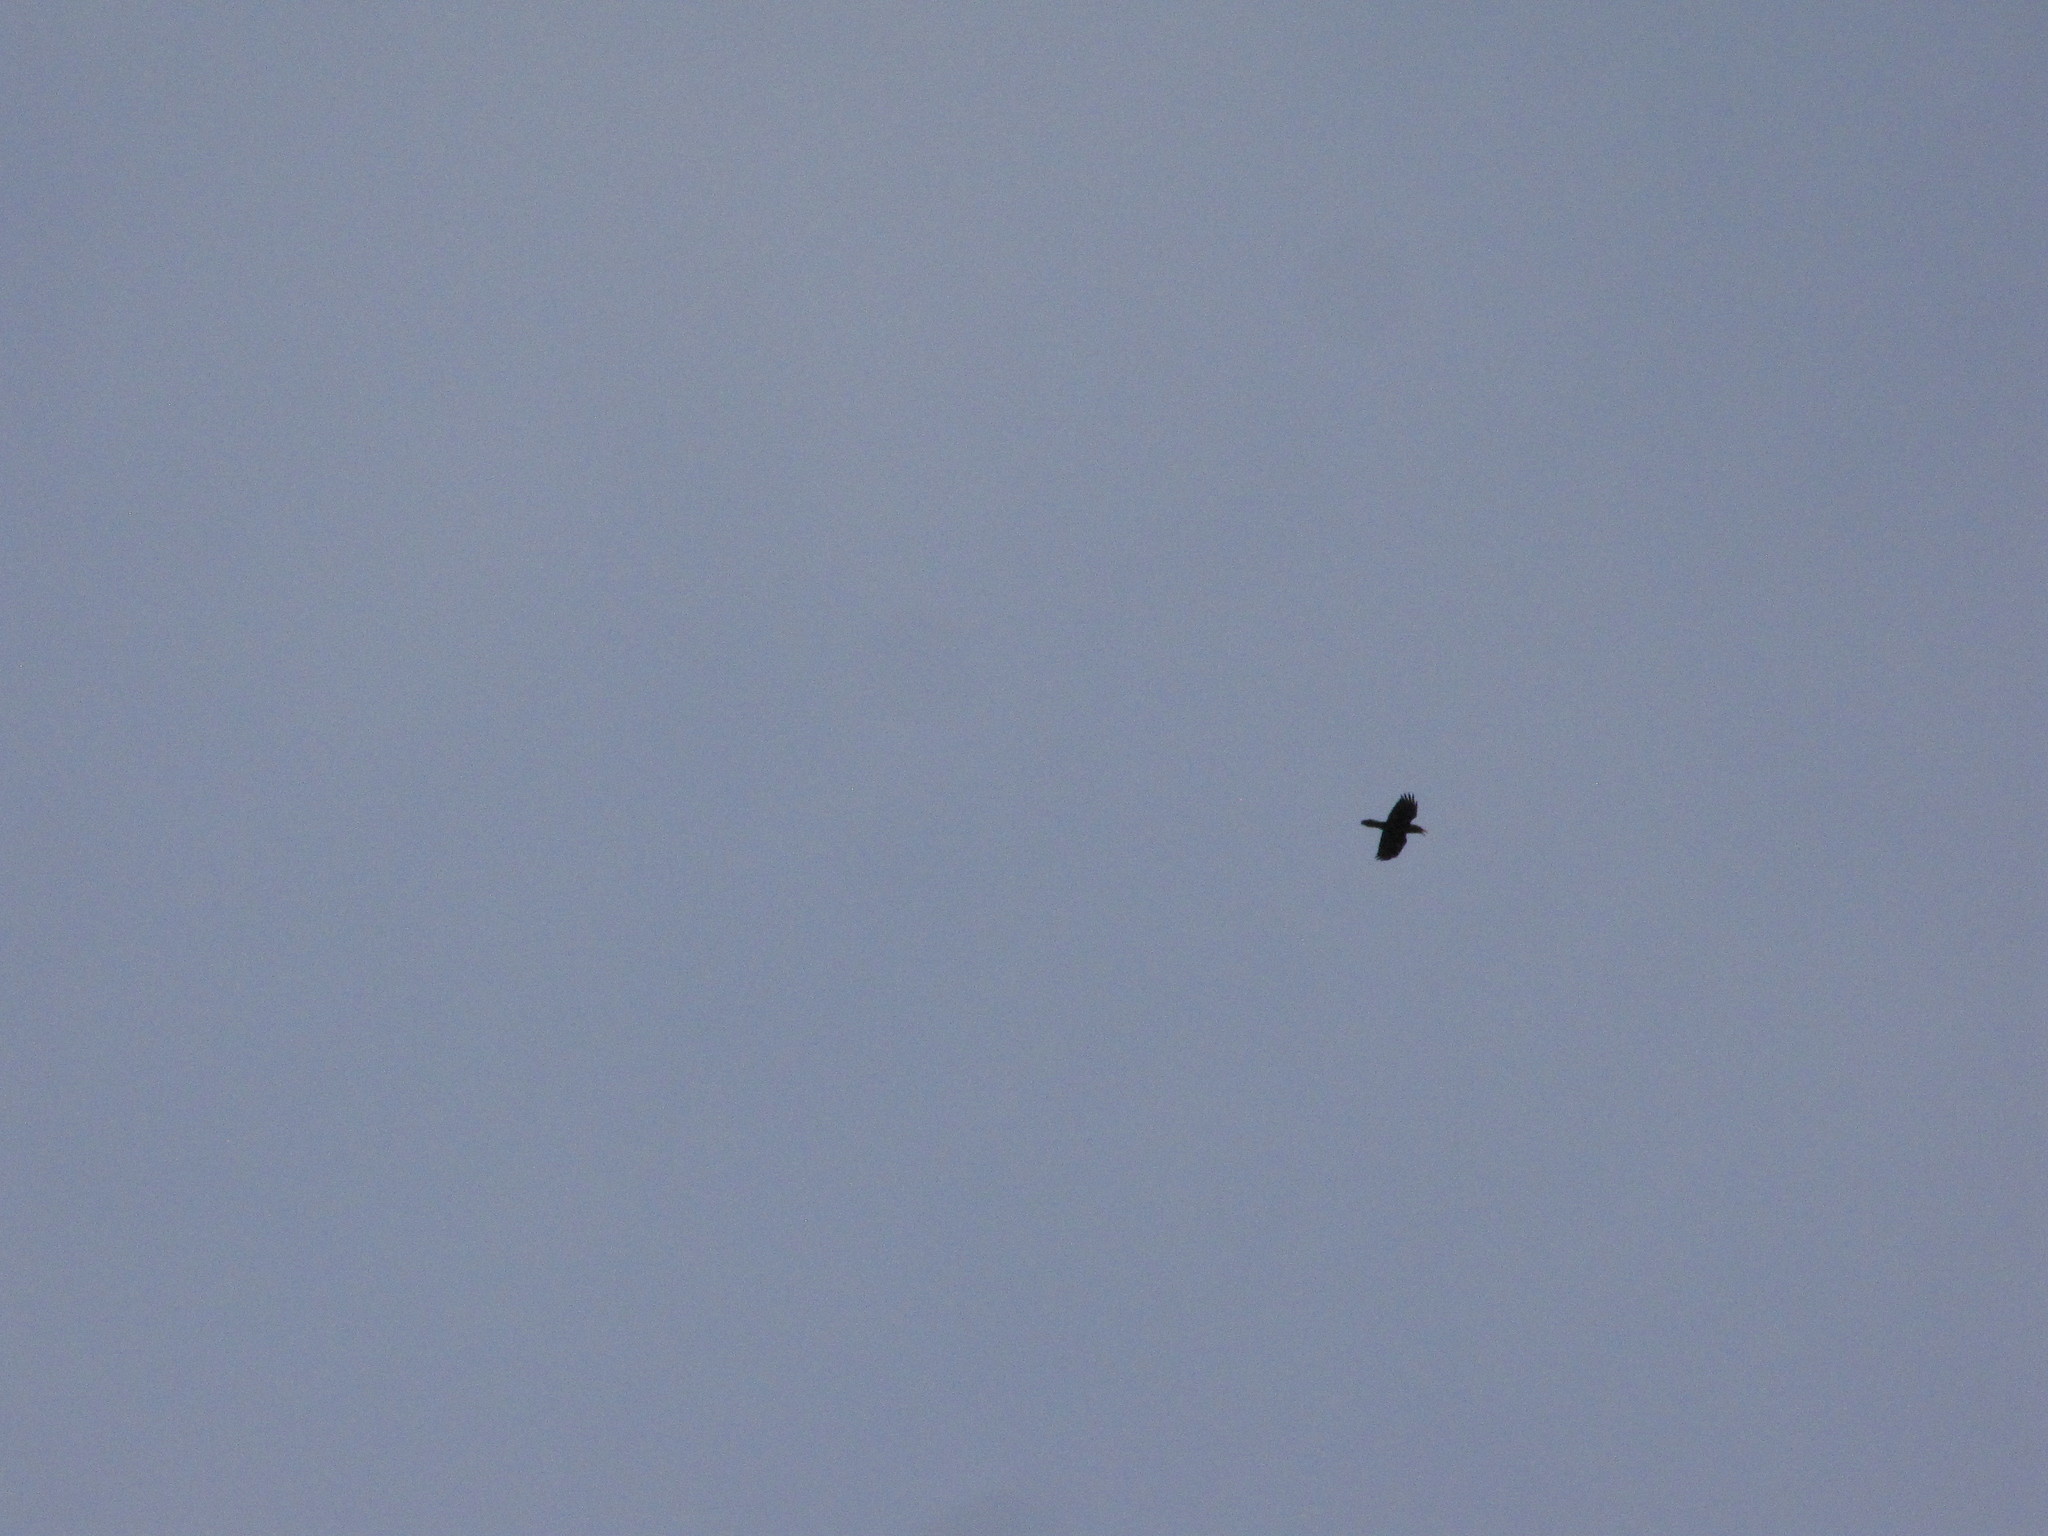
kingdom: Animalia
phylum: Chordata
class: Aves
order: Passeriformes
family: Corvidae
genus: Corvus
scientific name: Corvus corax
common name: Common raven
